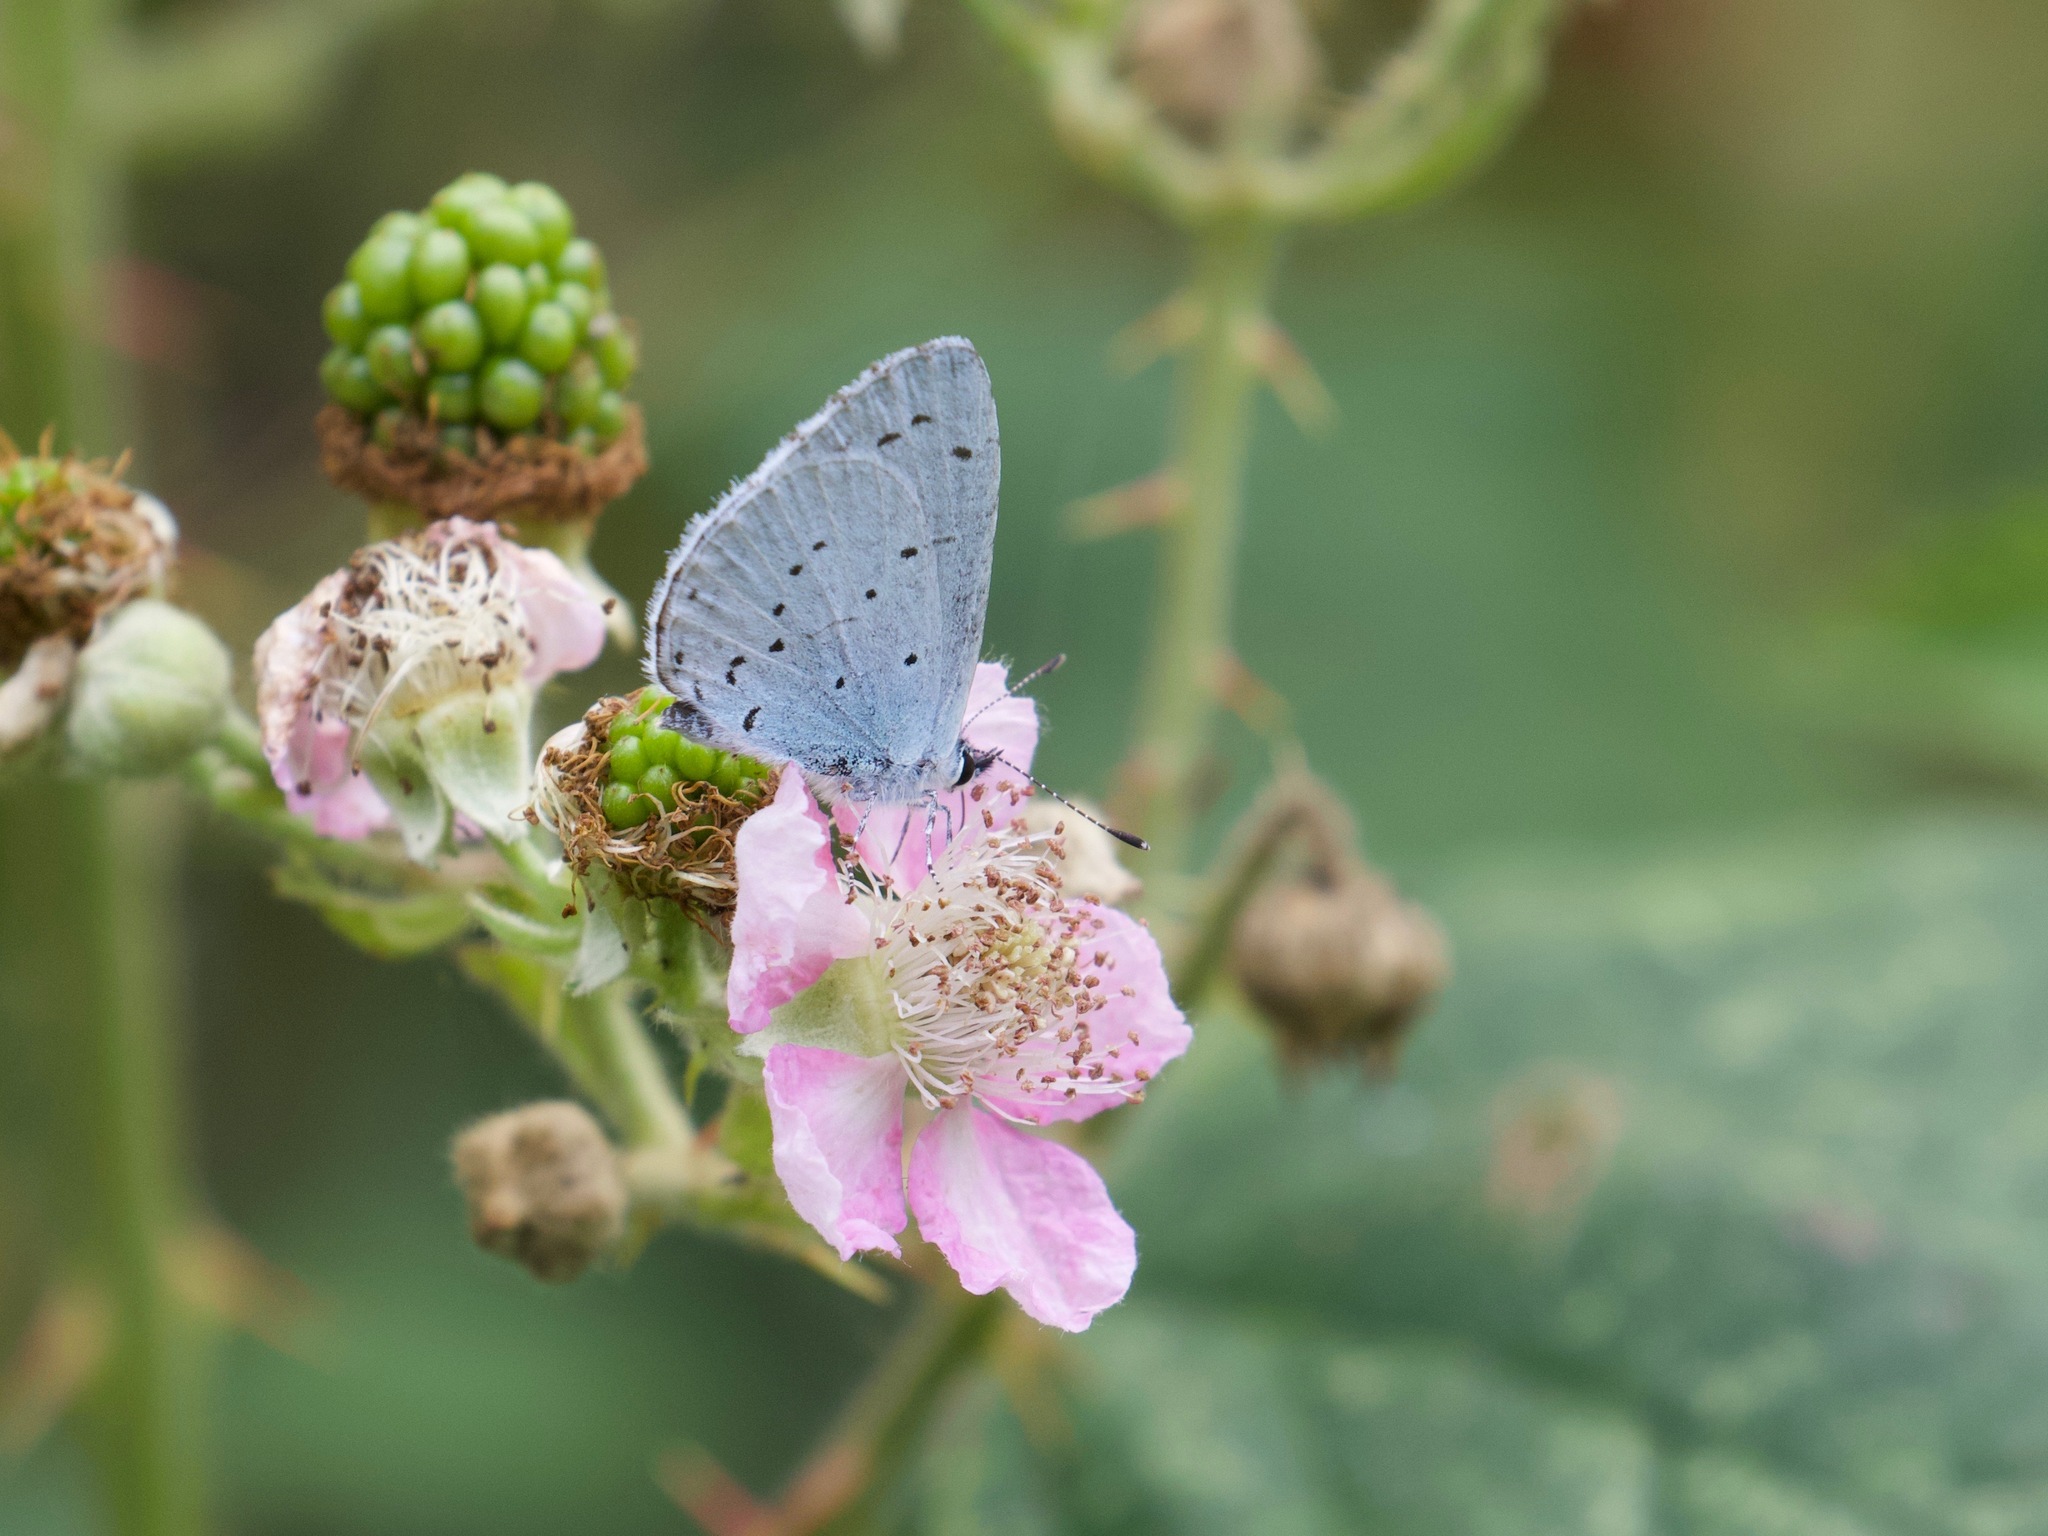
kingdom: Animalia
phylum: Arthropoda
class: Insecta
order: Lepidoptera
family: Lycaenidae
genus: Celastrina
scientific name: Celastrina argiolus
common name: Holly blue
